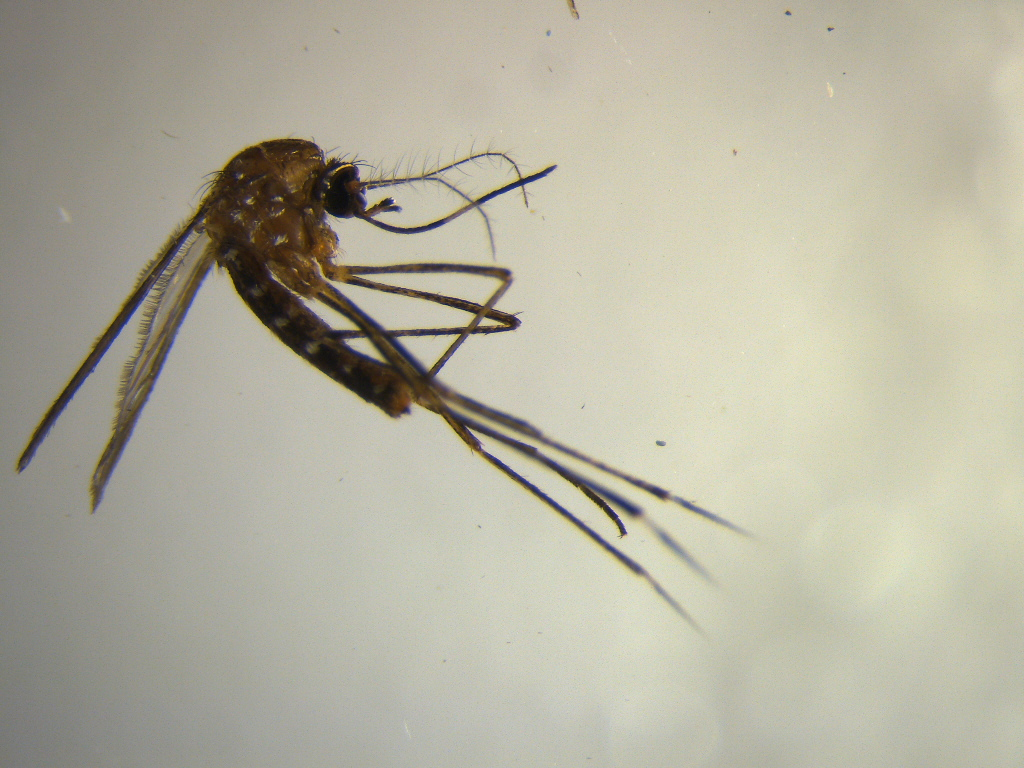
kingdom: Animalia
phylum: Arthropoda
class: Insecta
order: Diptera
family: Culicidae
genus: Aedes
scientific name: Aedes notoscriptus
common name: Australian backyard mosquito
